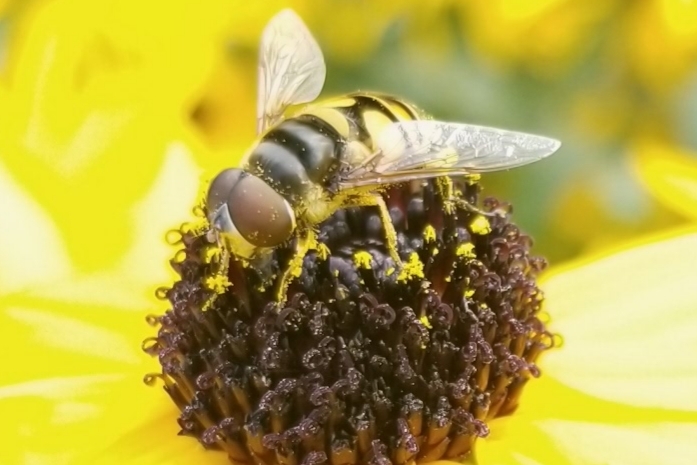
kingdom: Animalia
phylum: Arthropoda
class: Insecta
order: Diptera
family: Syrphidae
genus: Eristalis
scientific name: Eristalis transversa
